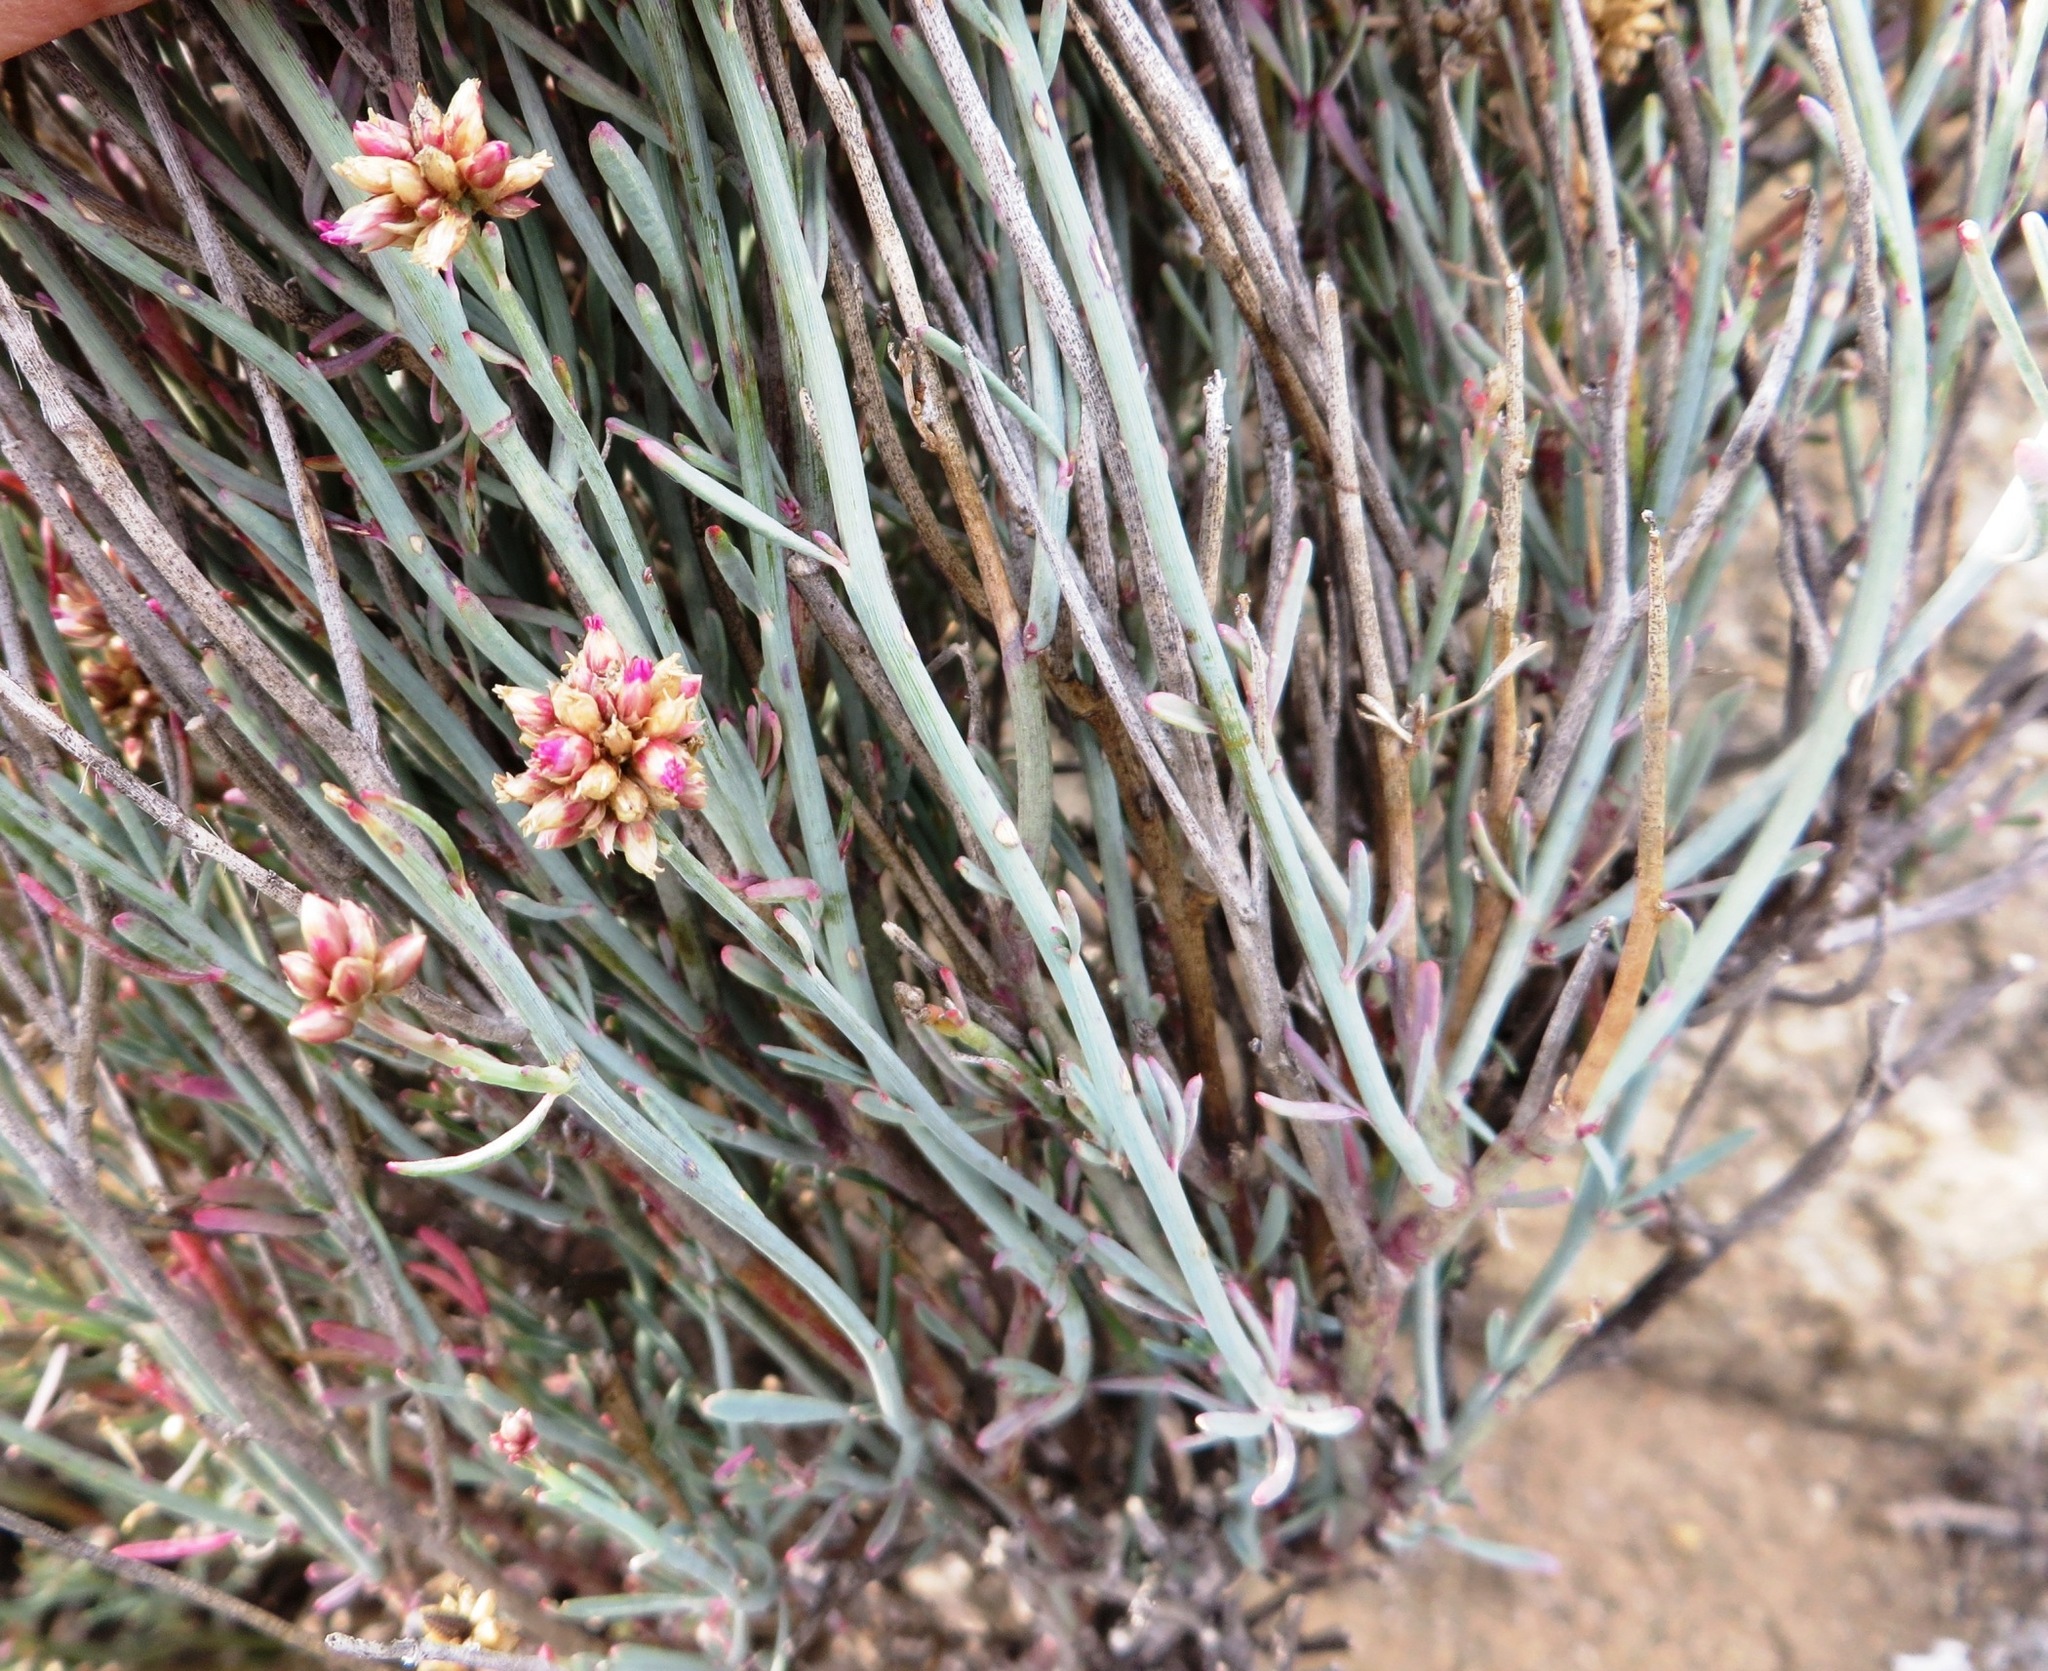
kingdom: Plantae
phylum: Tracheophyta
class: Magnoliopsida
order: Caryophyllales
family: Amaranthaceae
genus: Hermbstaedtia
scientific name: Hermbstaedtia glauca
